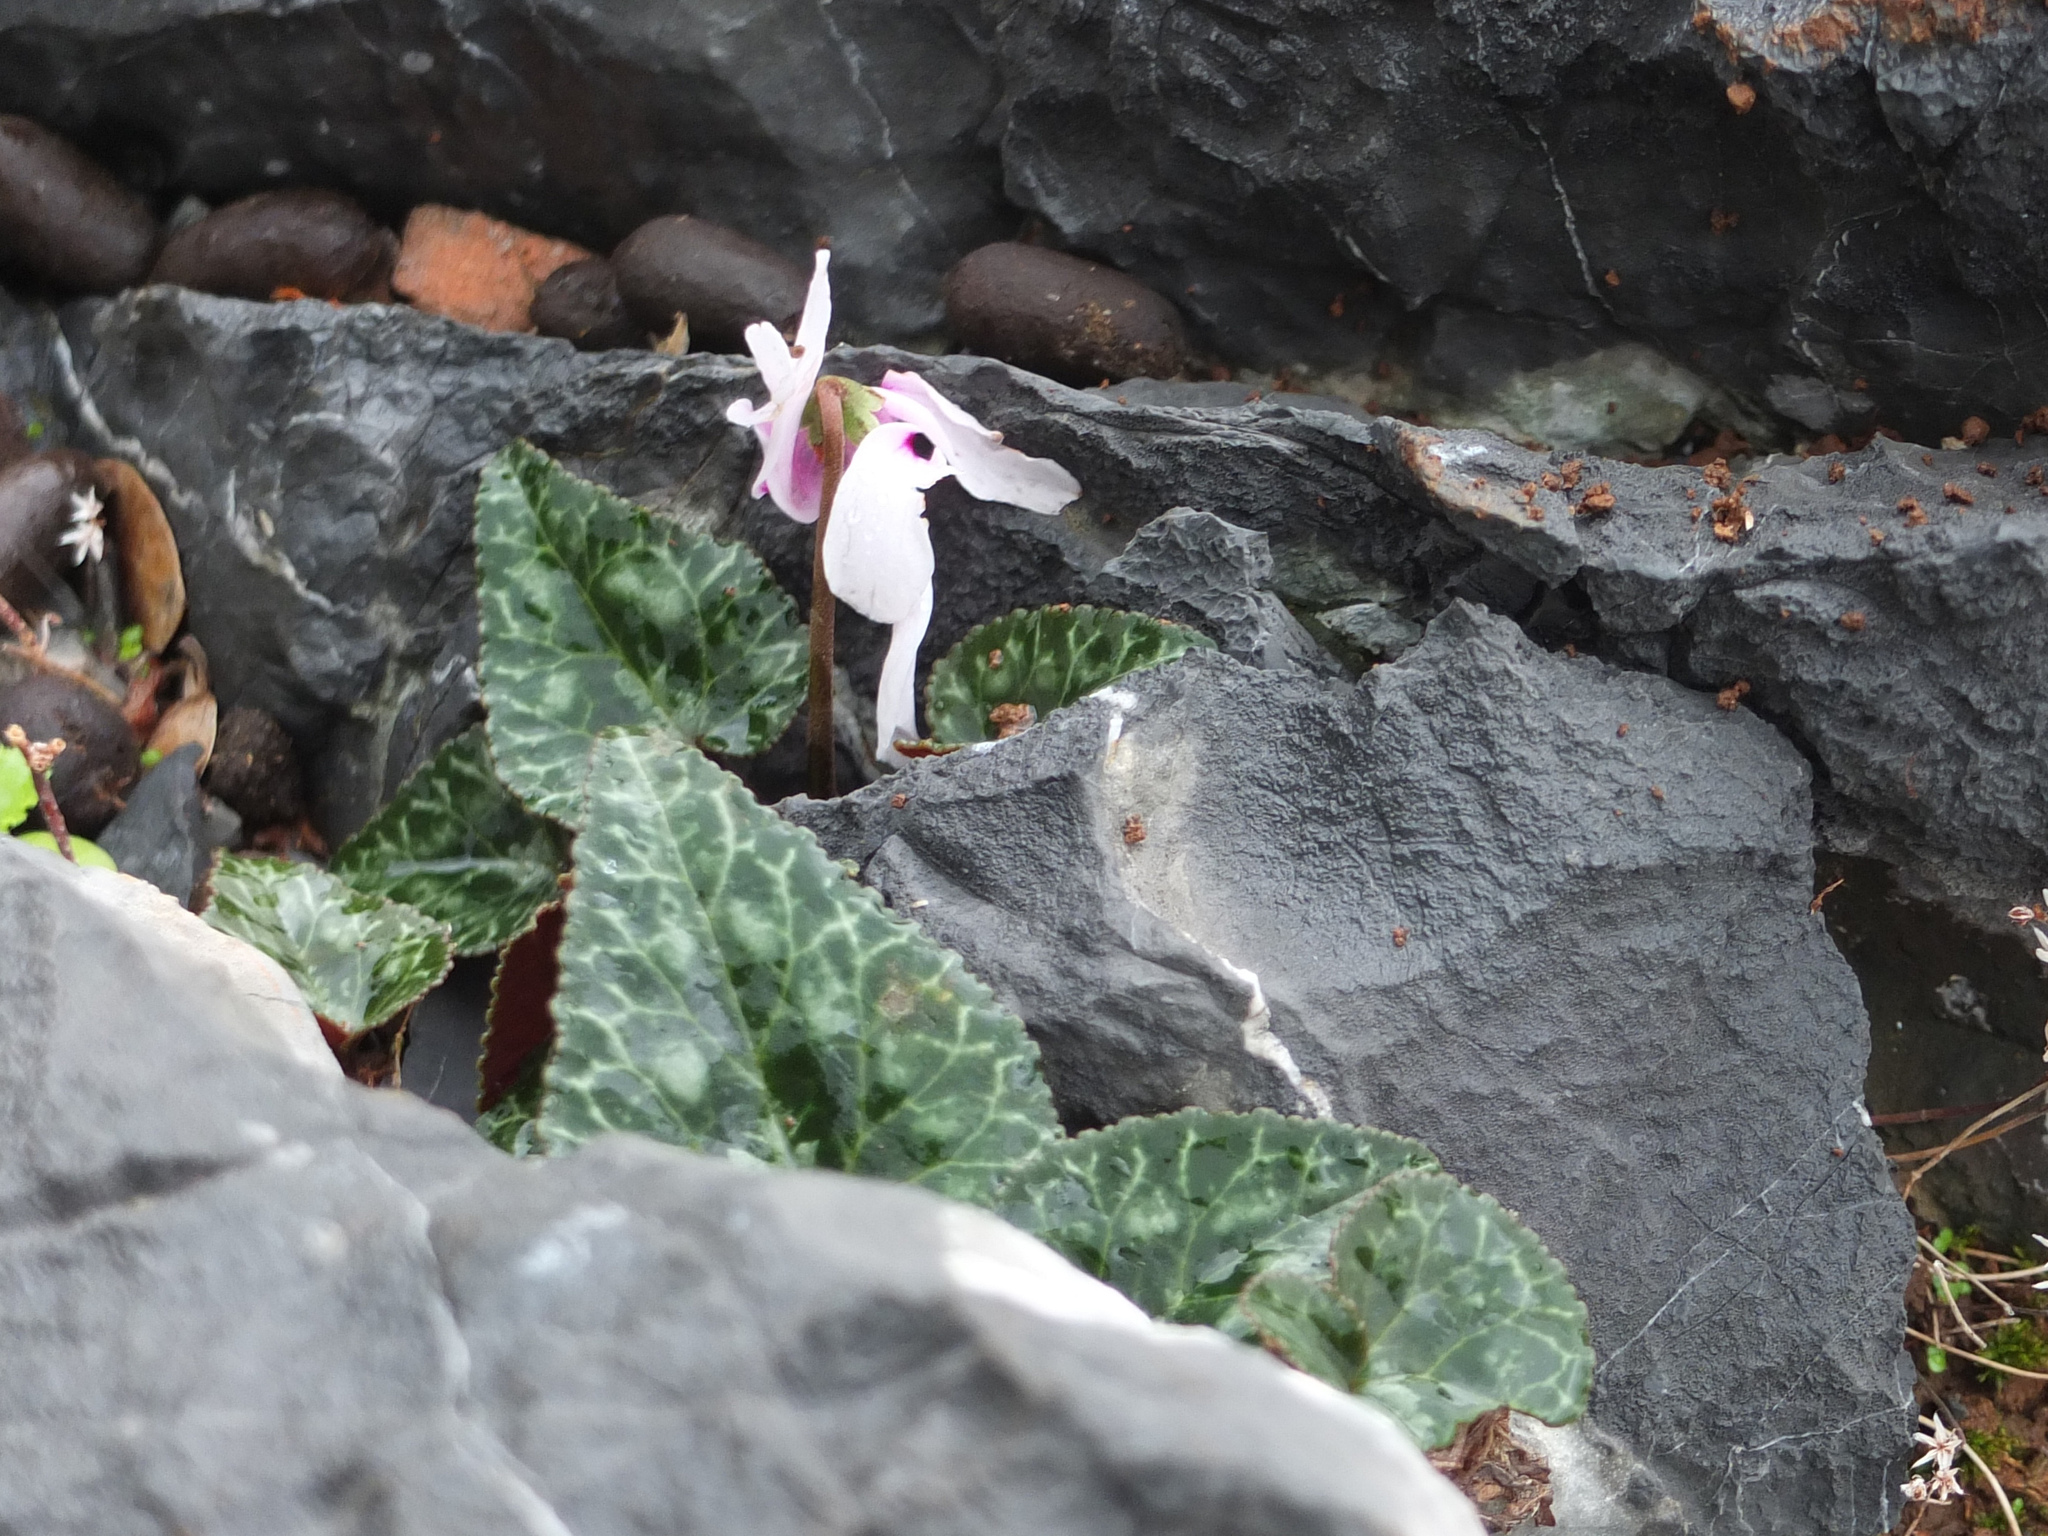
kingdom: Plantae
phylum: Tracheophyta
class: Magnoliopsida
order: Ericales
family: Primulaceae
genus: Cyclamen
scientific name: Cyclamen graecum
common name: Greek cyclamen
